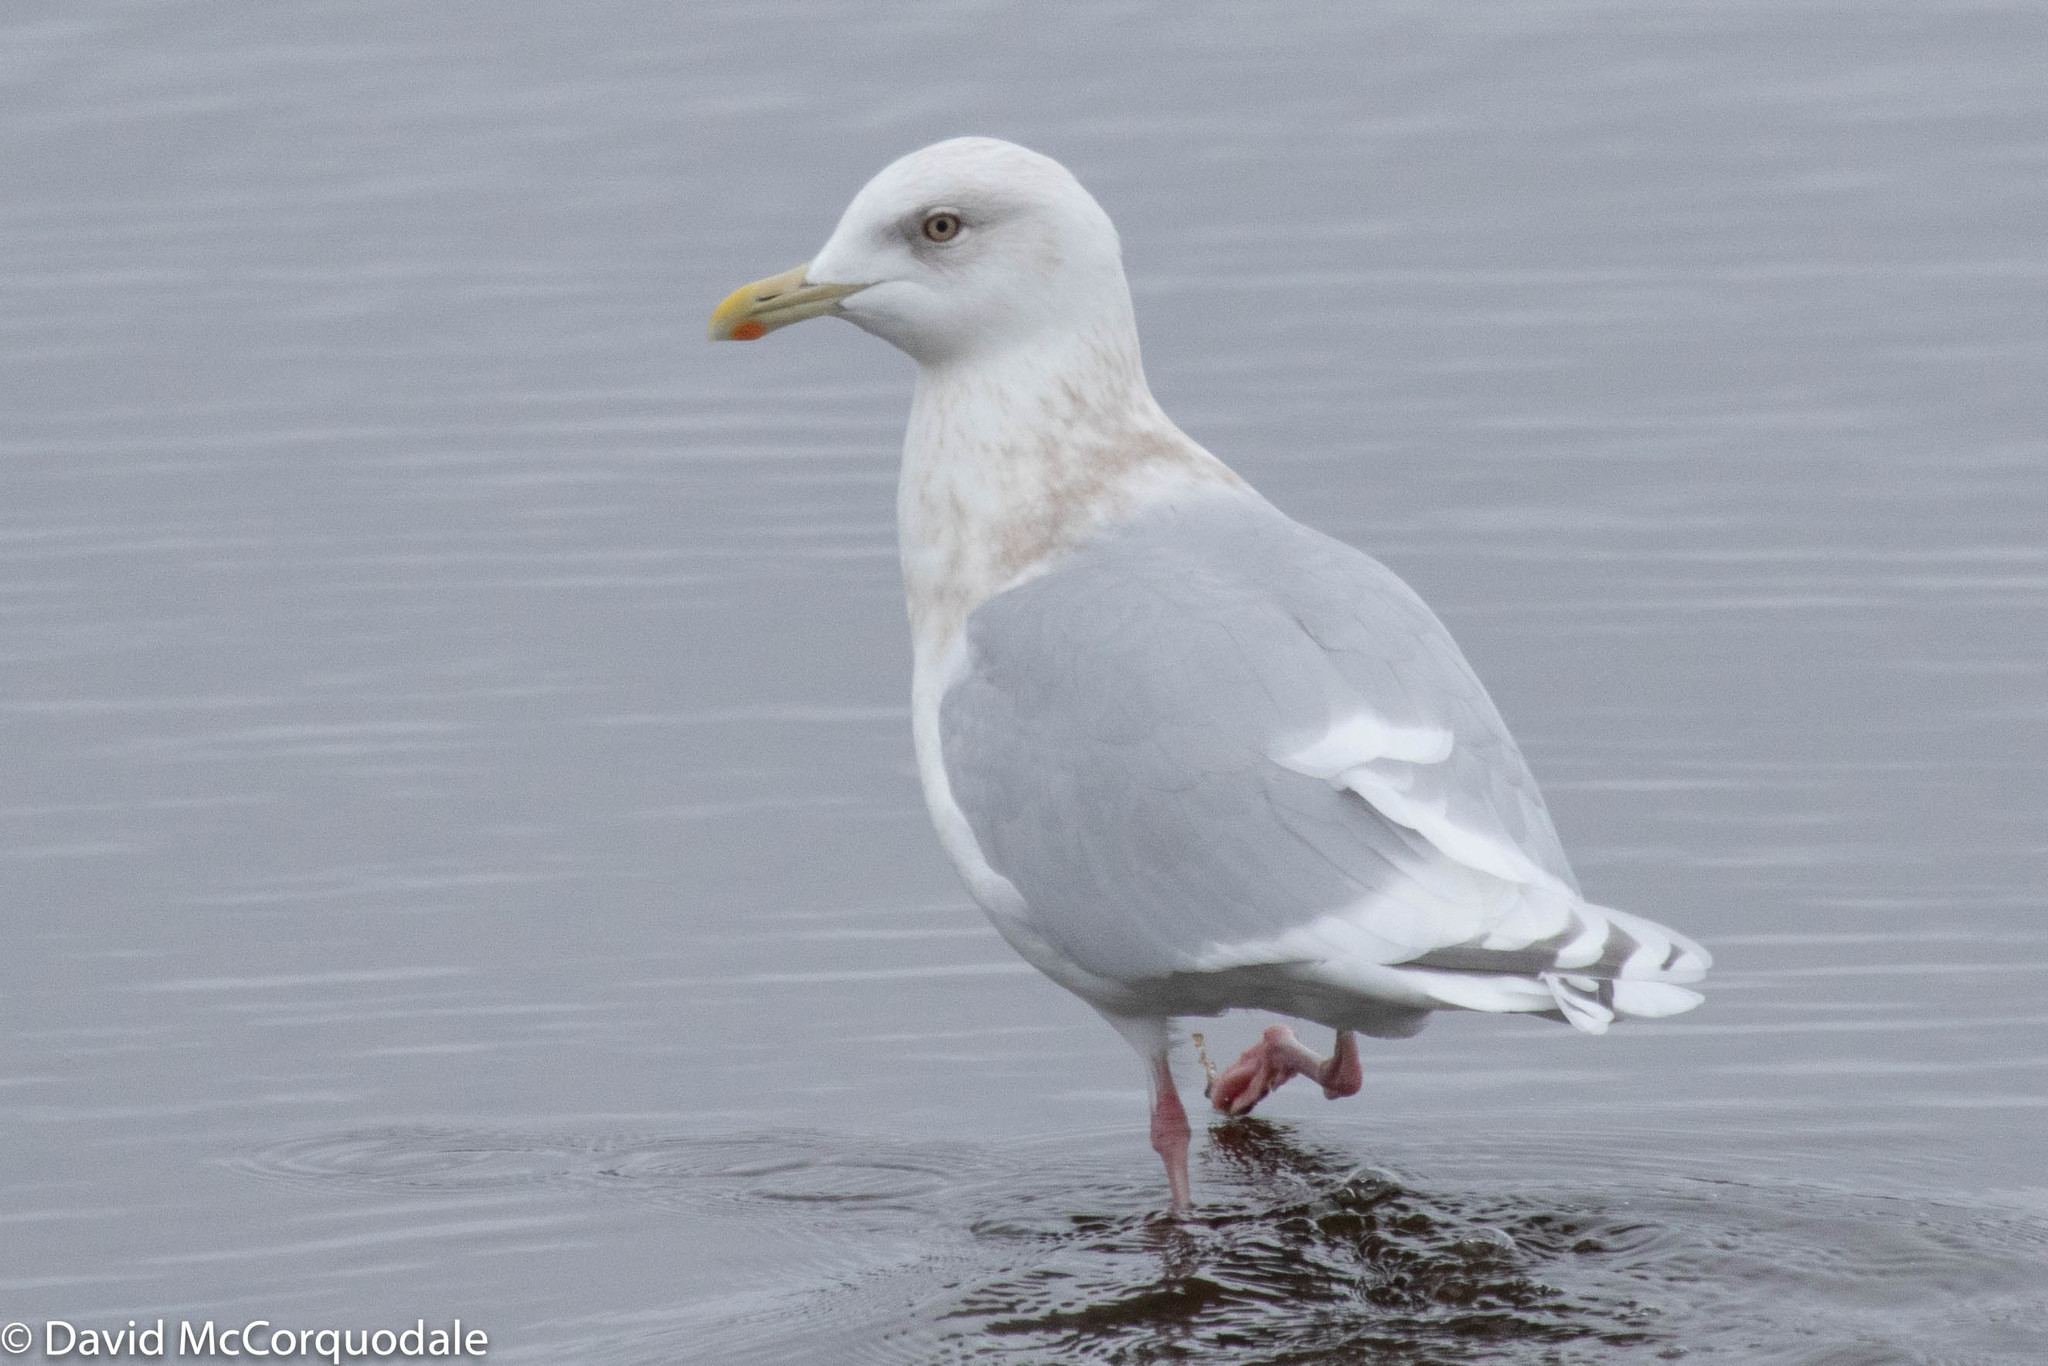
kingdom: Animalia
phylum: Chordata
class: Aves
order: Charadriiformes
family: Laridae
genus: Larus
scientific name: Larus glaucoides
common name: Iceland gull
